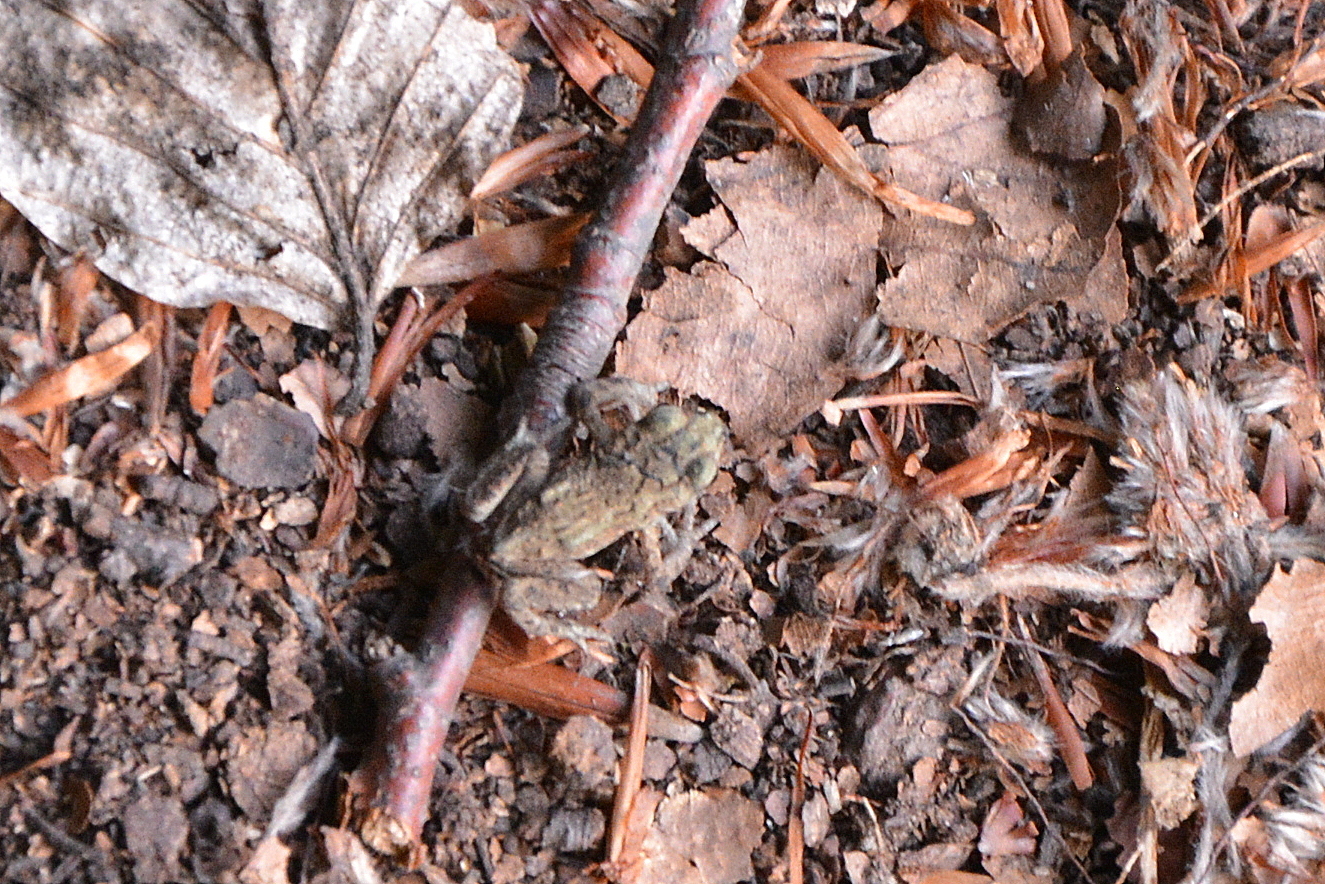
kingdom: Animalia
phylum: Chordata
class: Amphibia
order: Anura
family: Bufonidae
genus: Bufo
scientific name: Bufo bufo
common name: Common toad
